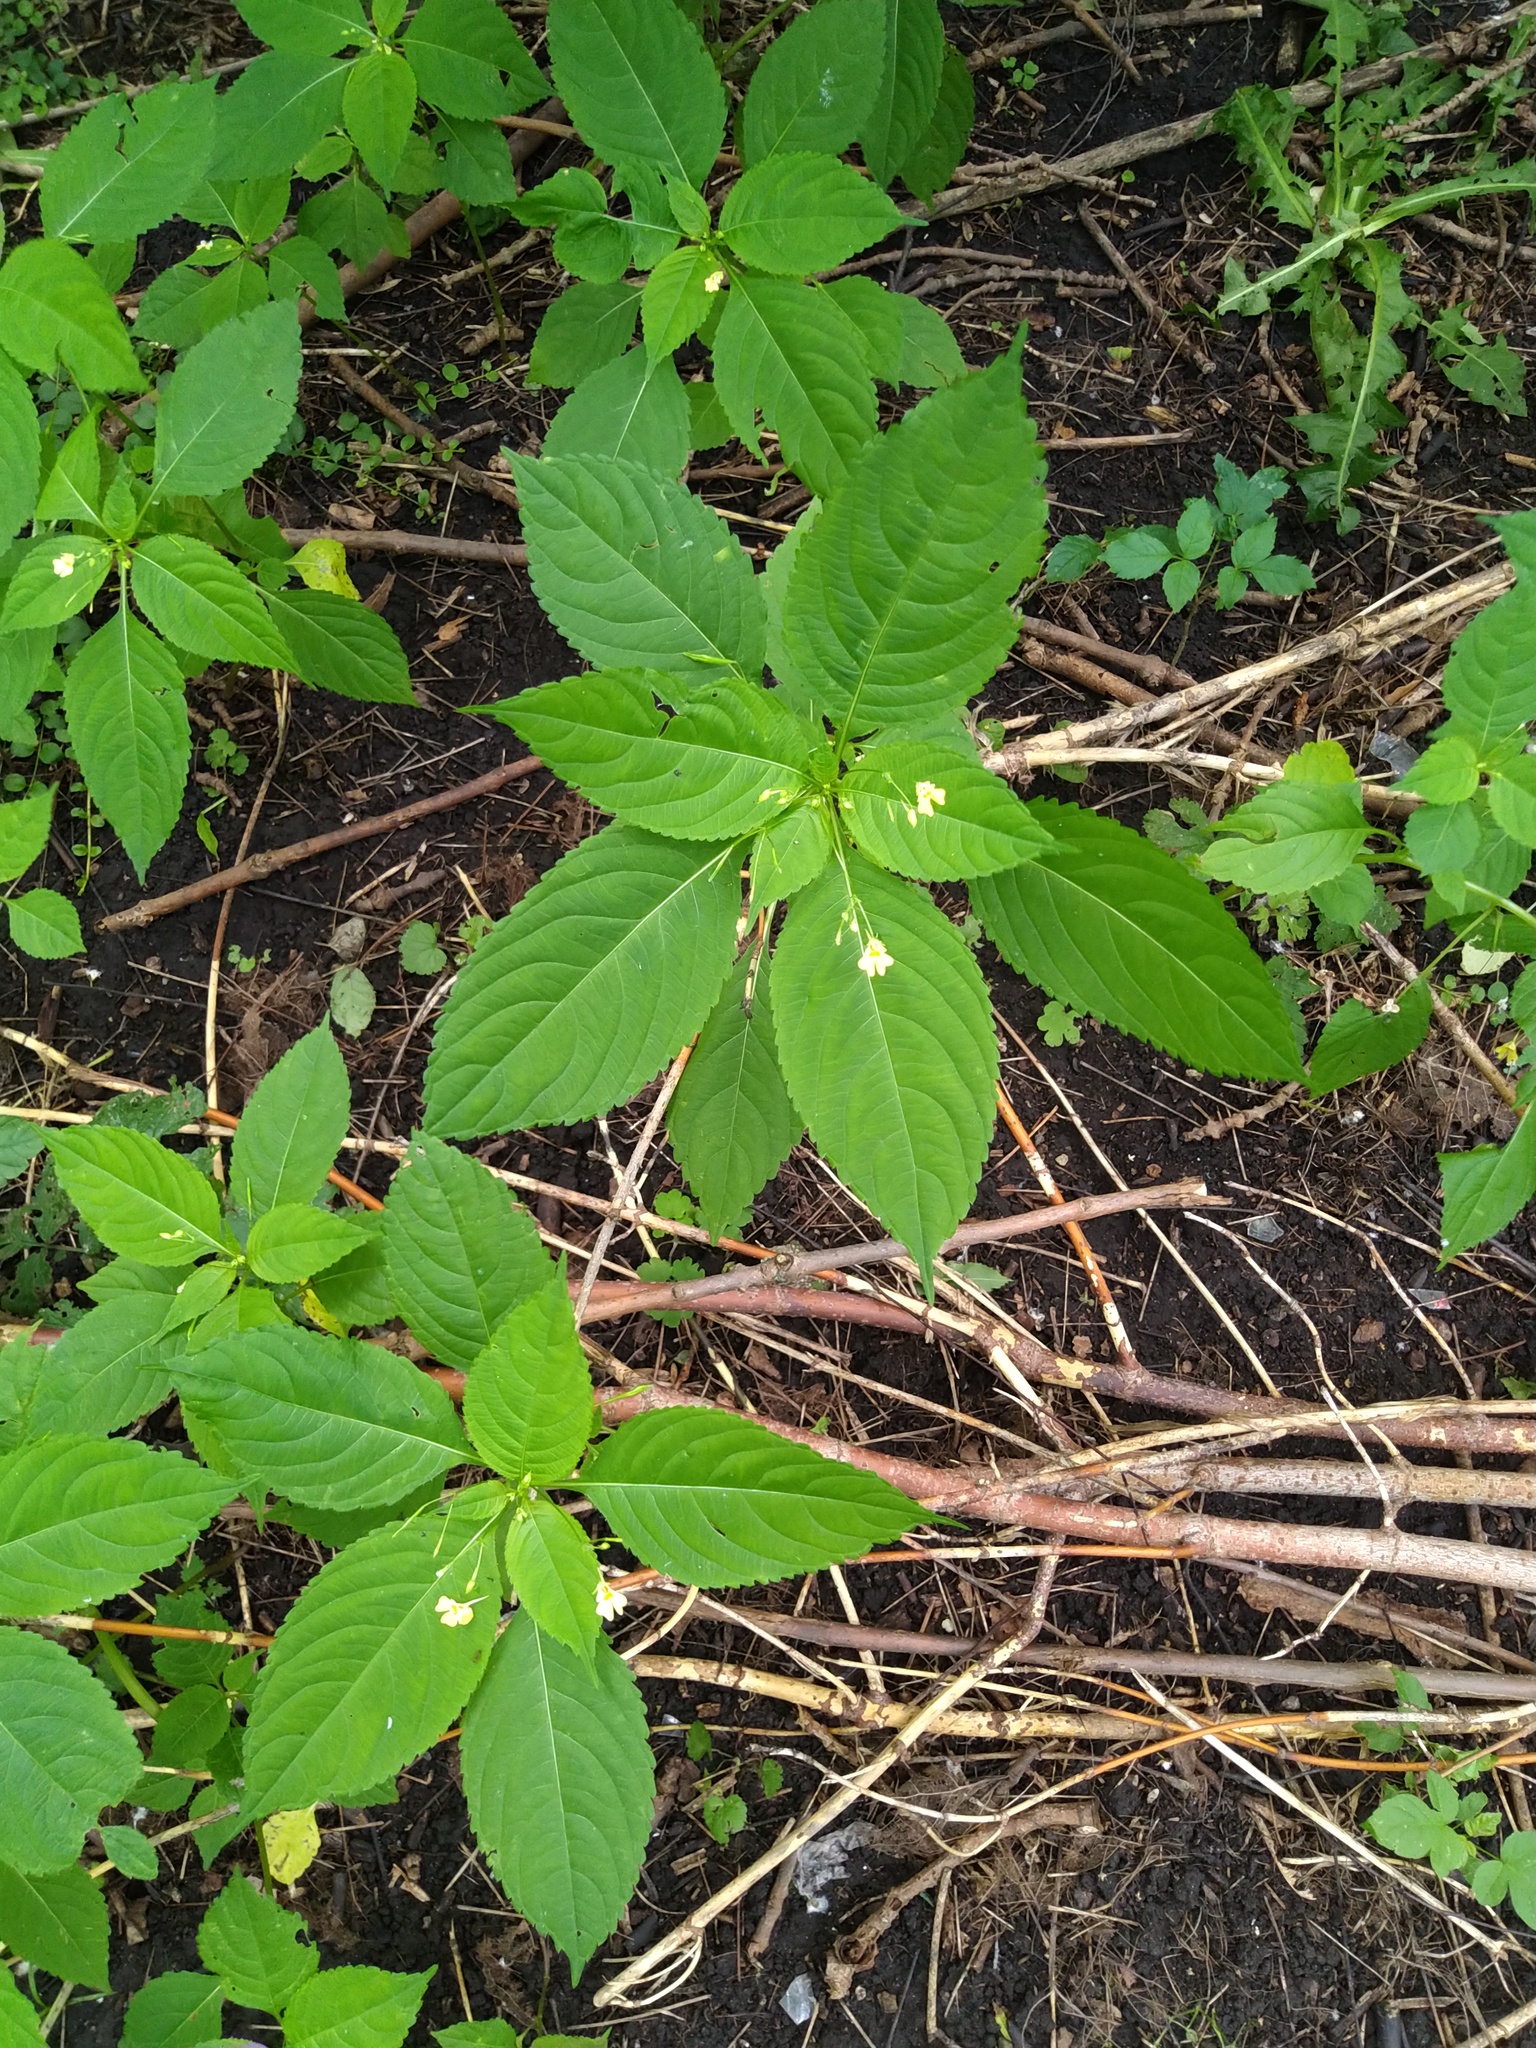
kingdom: Plantae
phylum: Tracheophyta
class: Magnoliopsida
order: Ericales
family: Balsaminaceae
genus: Impatiens
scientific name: Impatiens parviflora
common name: Small balsam
